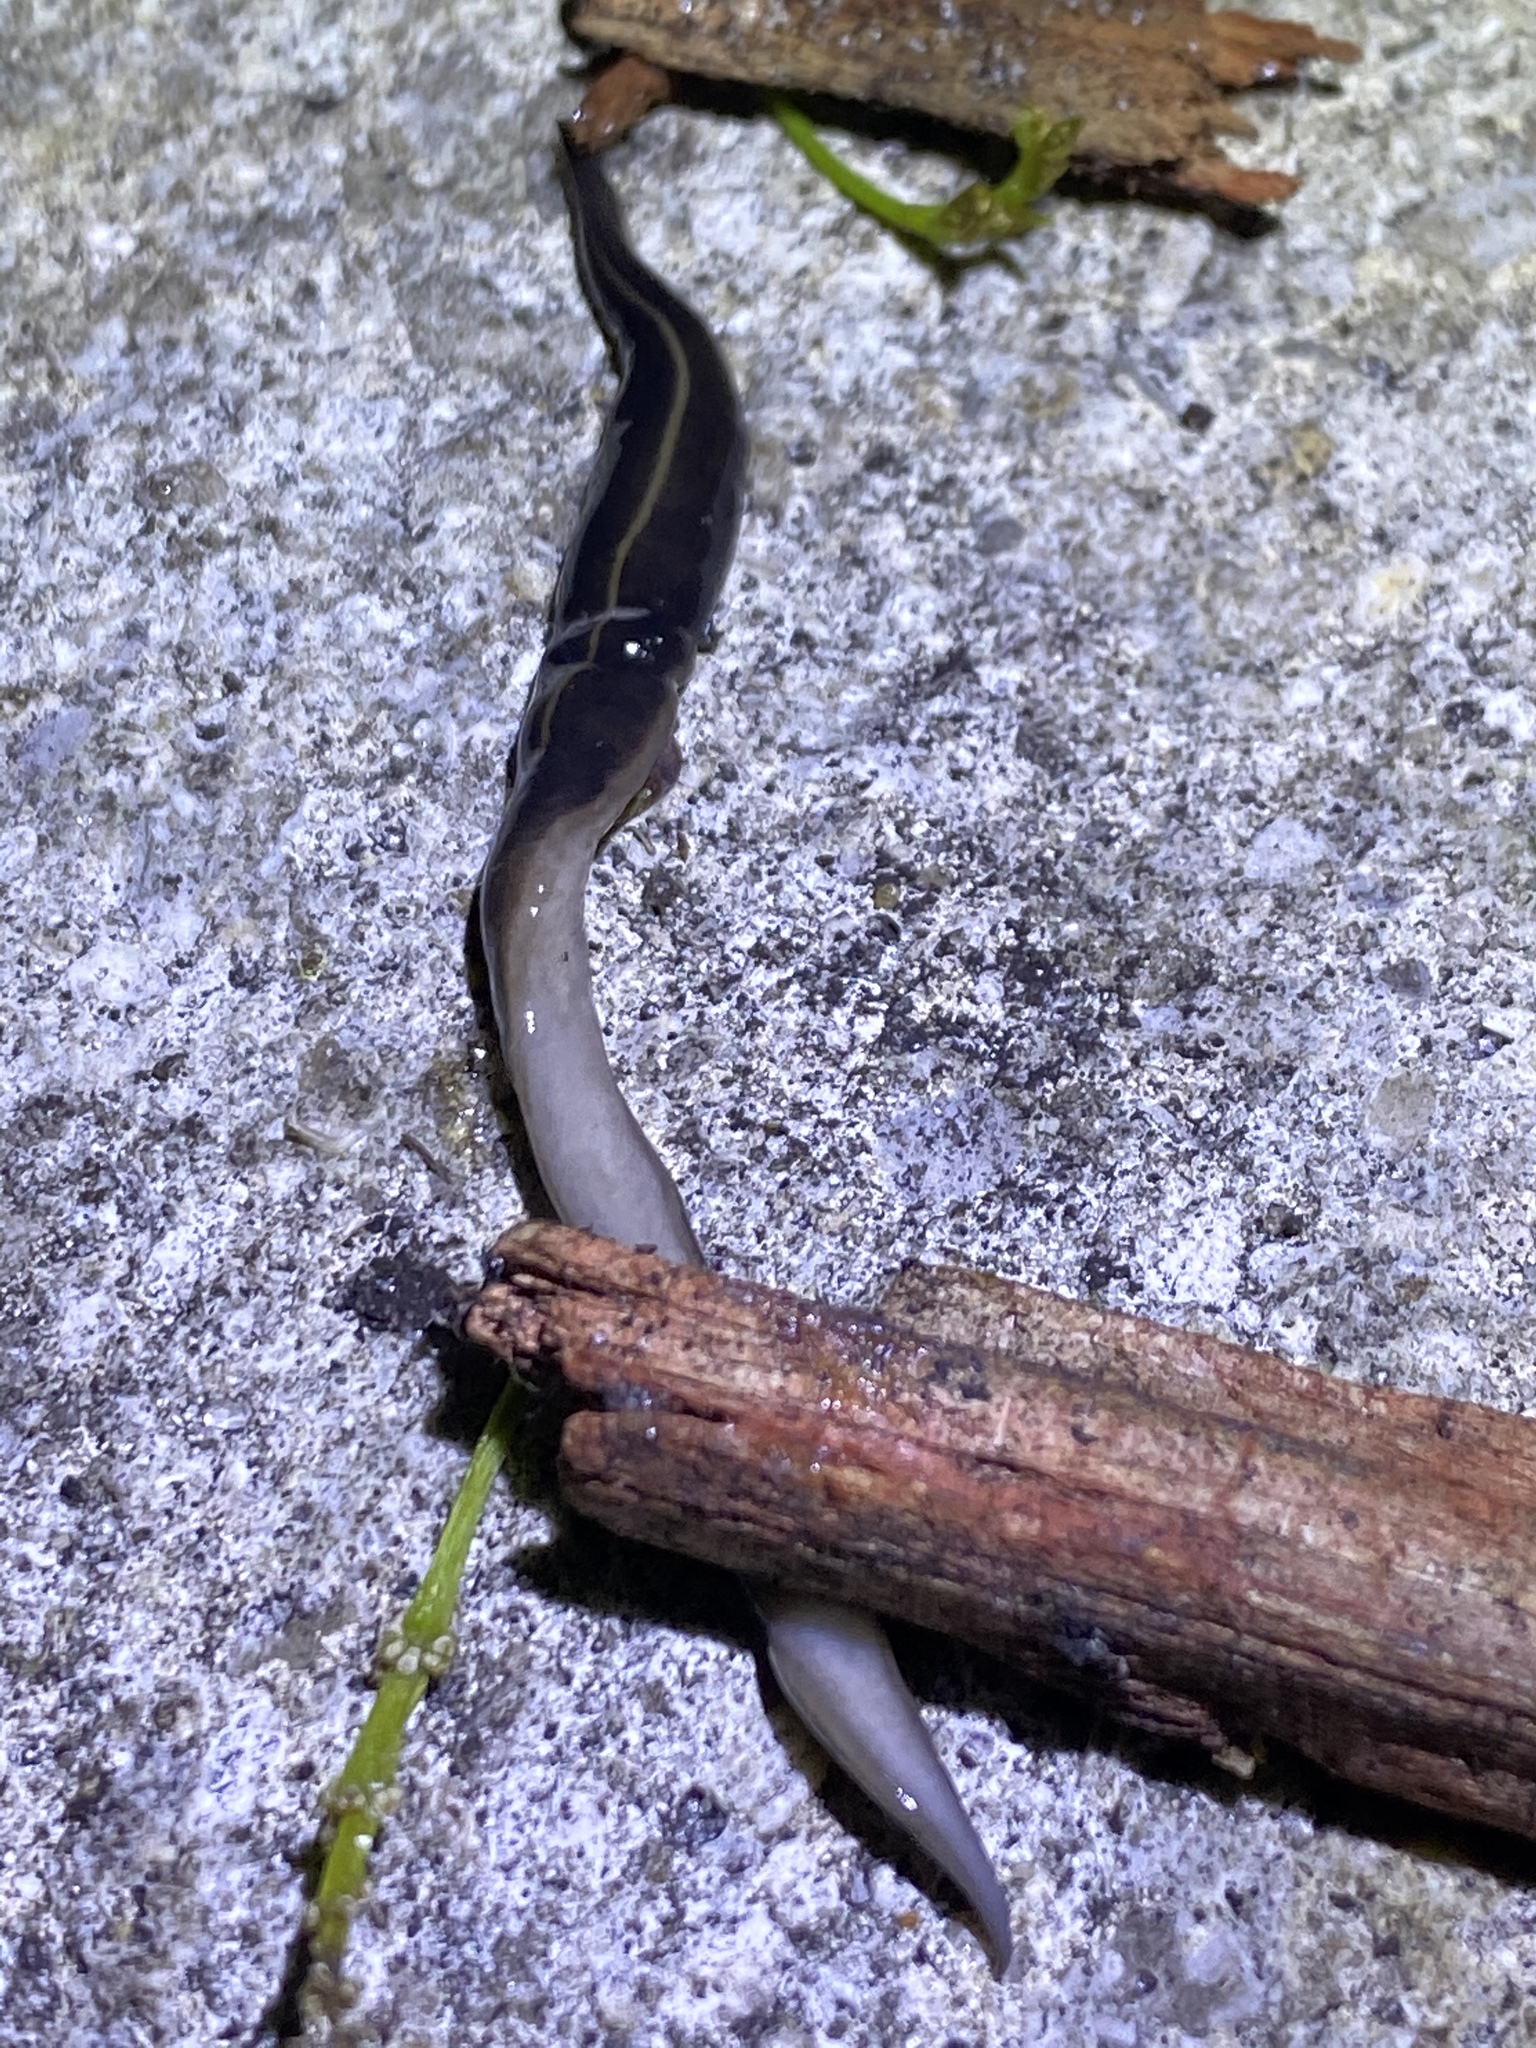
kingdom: Animalia
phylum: Platyhelminthes
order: Tricladida
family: Geoplanidae
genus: Platydemus
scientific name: Platydemus manokwari
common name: New guinea flatworm
